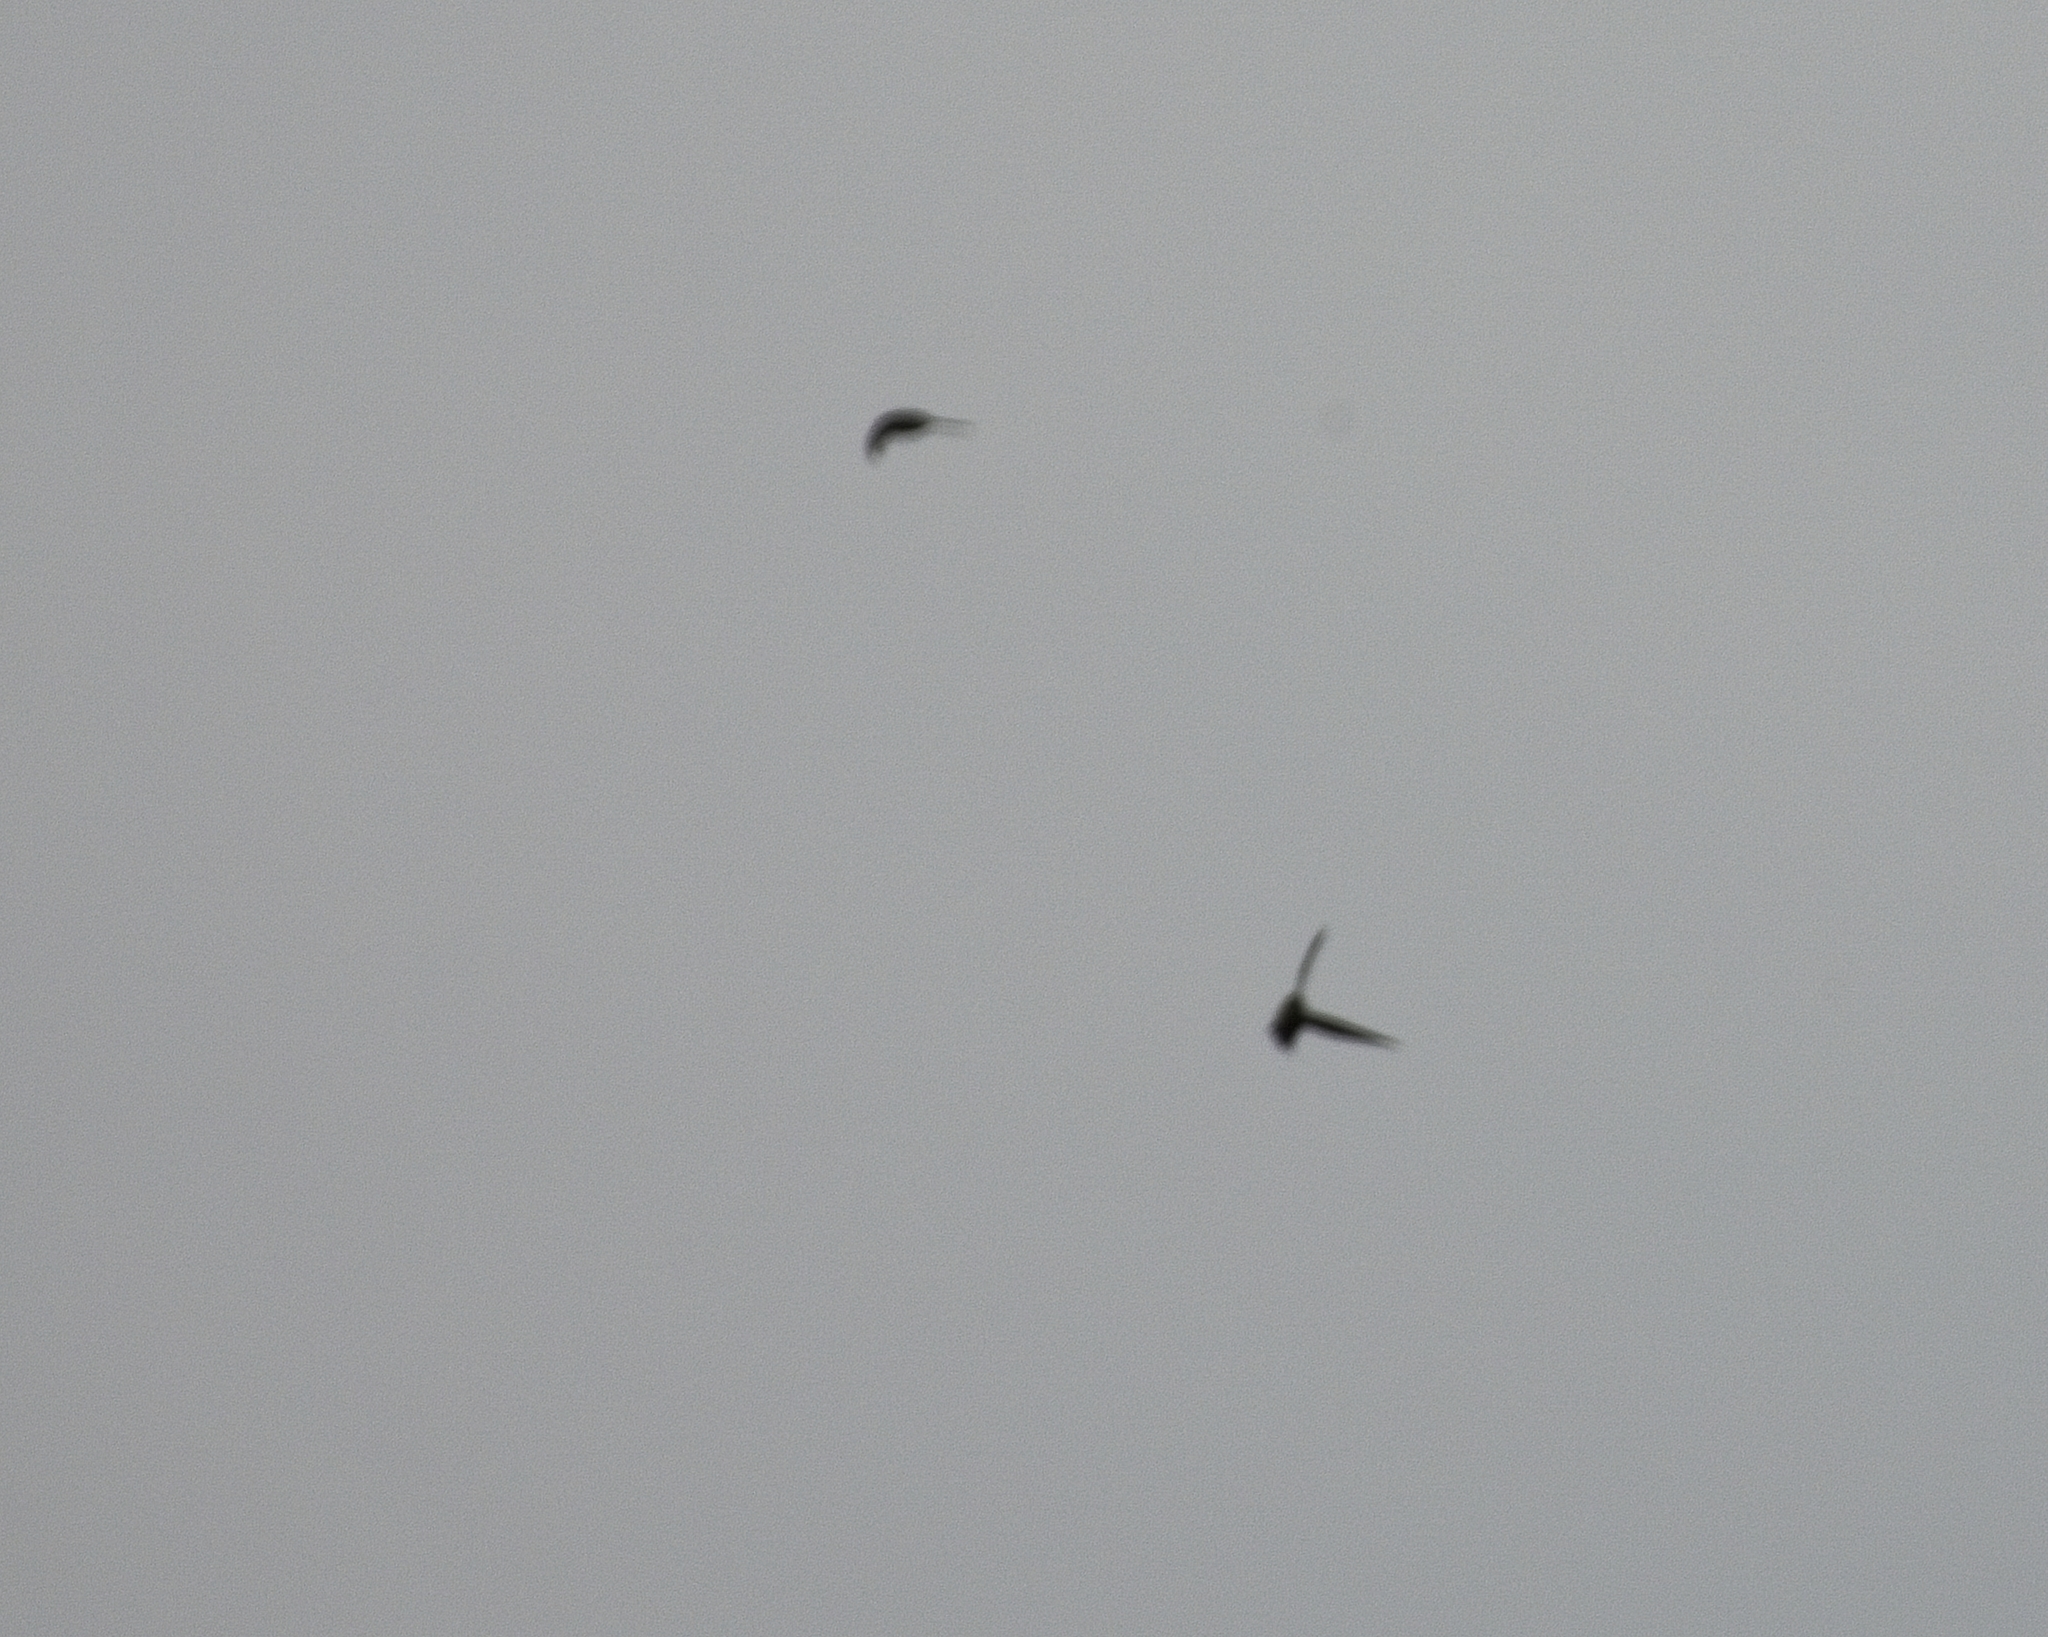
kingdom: Animalia
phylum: Chordata
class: Aves
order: Apodiformes
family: Apodidae
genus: Chaetura
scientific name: Chaetura pelagica
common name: Chimney swift
